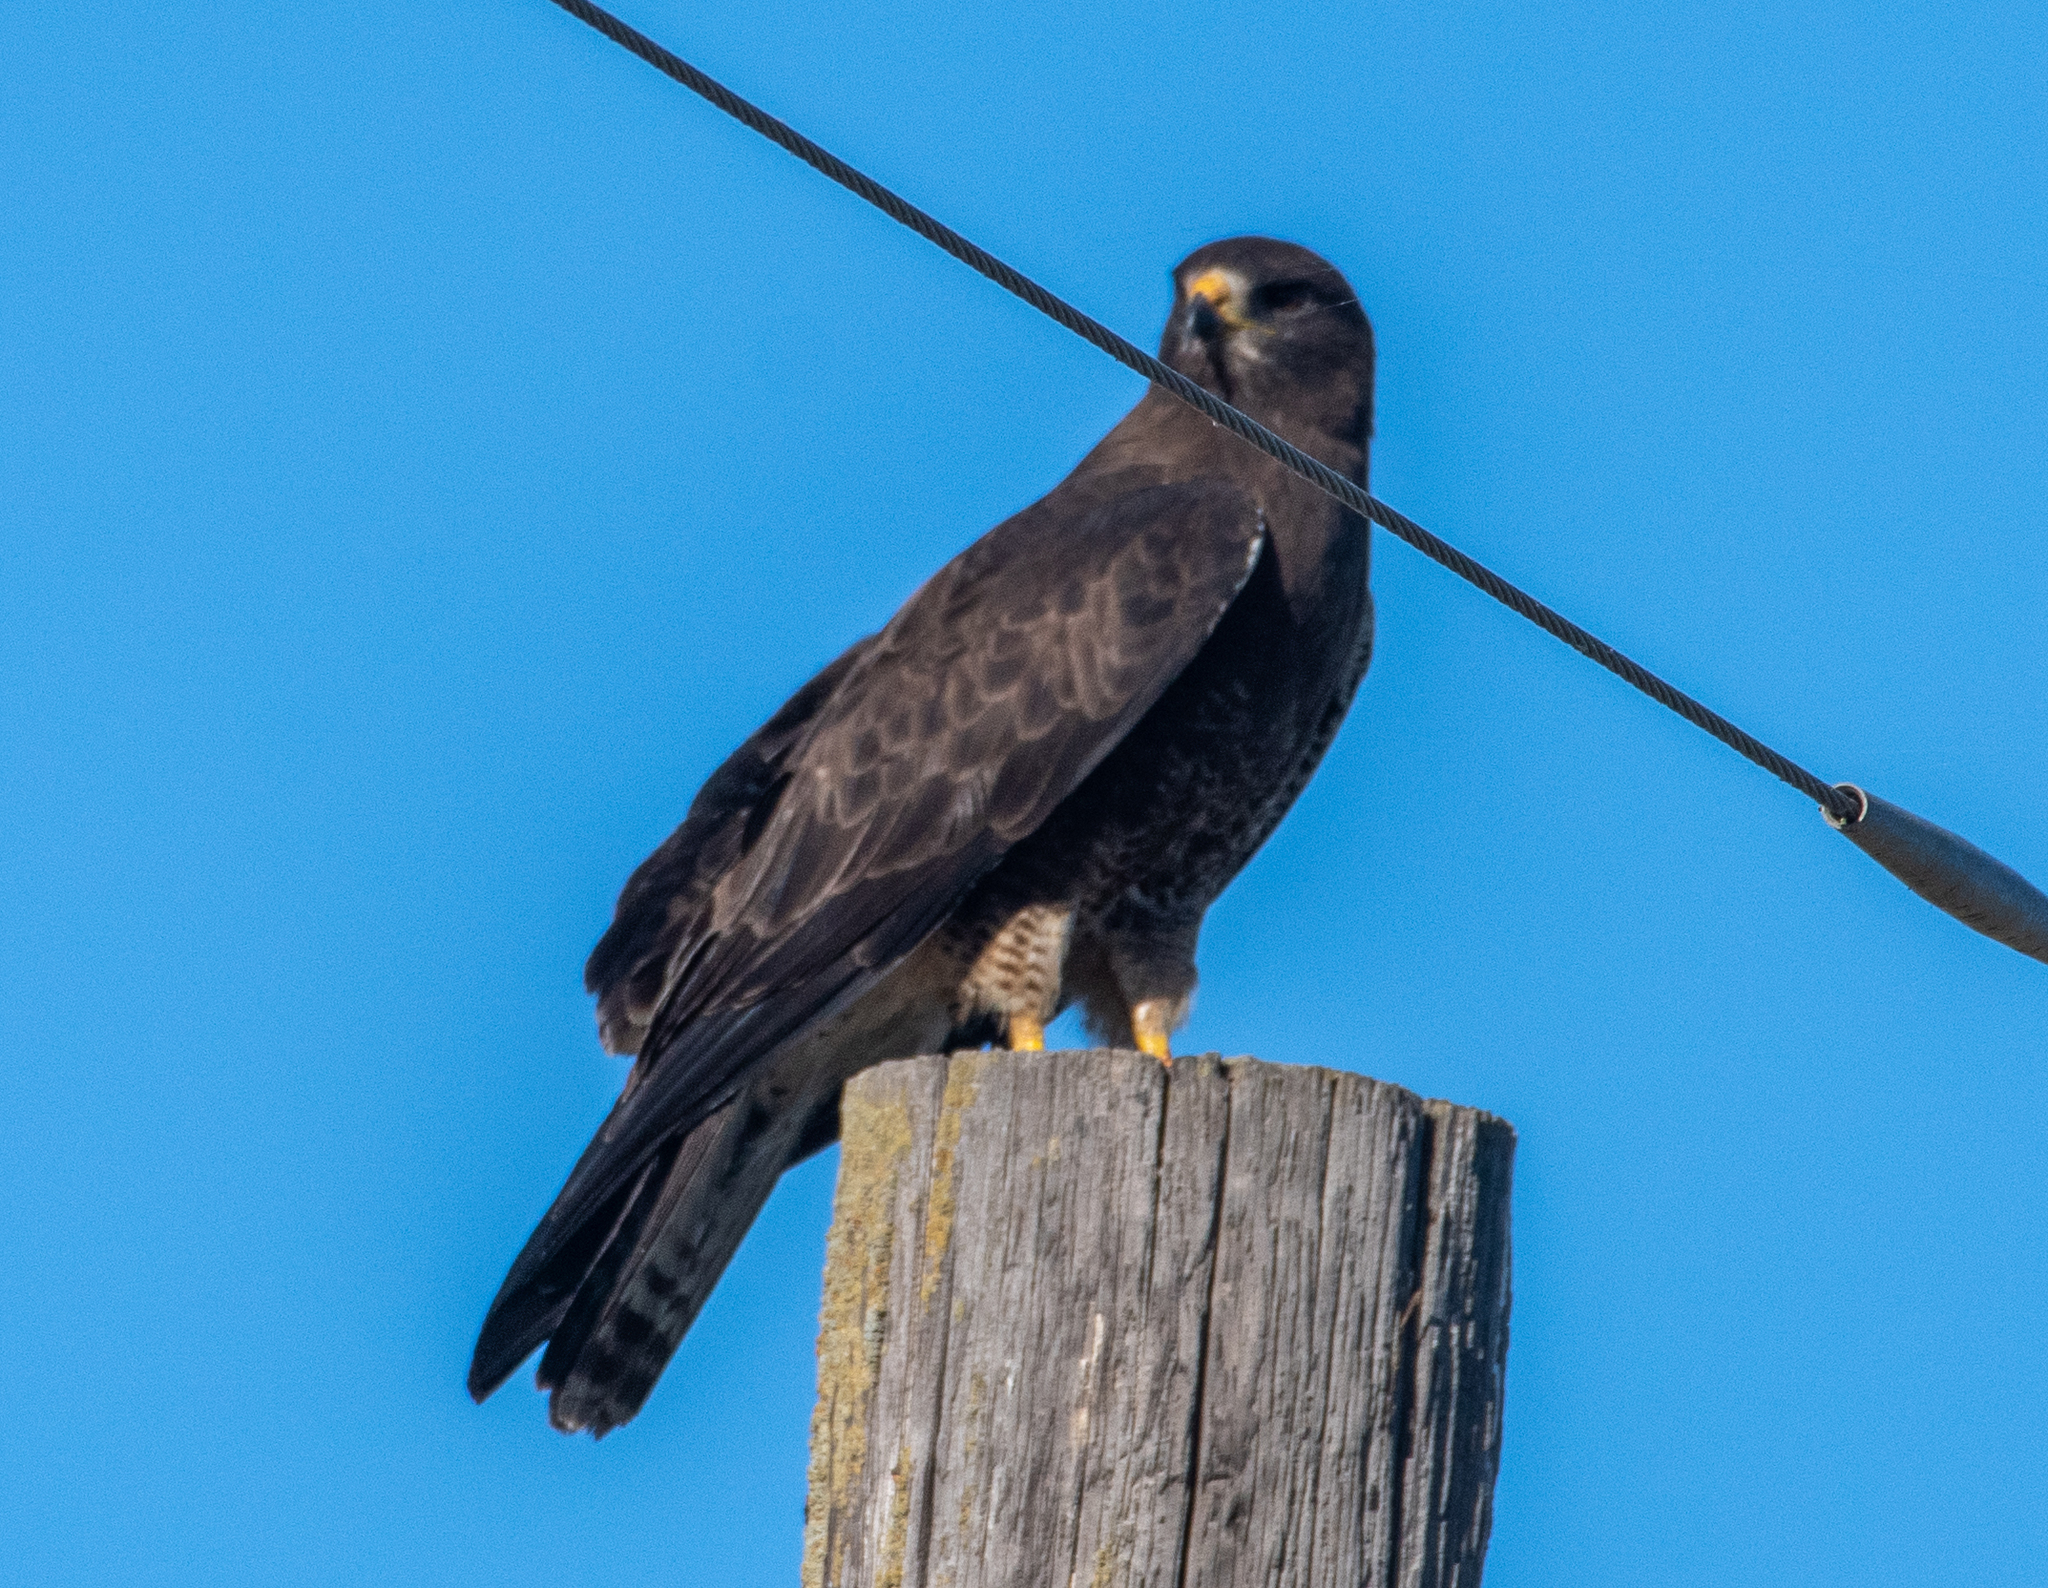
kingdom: Animalia
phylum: Chordata
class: Aves
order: Accipitriformes
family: Accipitridae
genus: Buteo
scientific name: Buteo swainsoni
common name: Swainson's hawk
